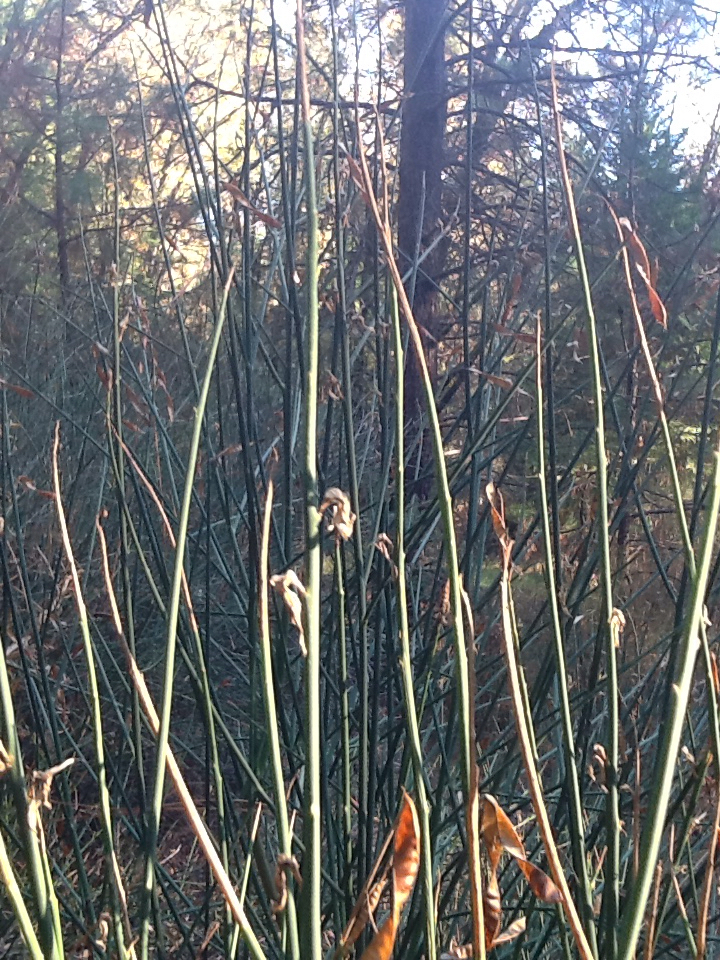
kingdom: Plantae
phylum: Tracheophyta
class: Magnoliopsida
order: Fabales
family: Fabaceae
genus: Spartium
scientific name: Spartium junceum
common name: Spanish broom
